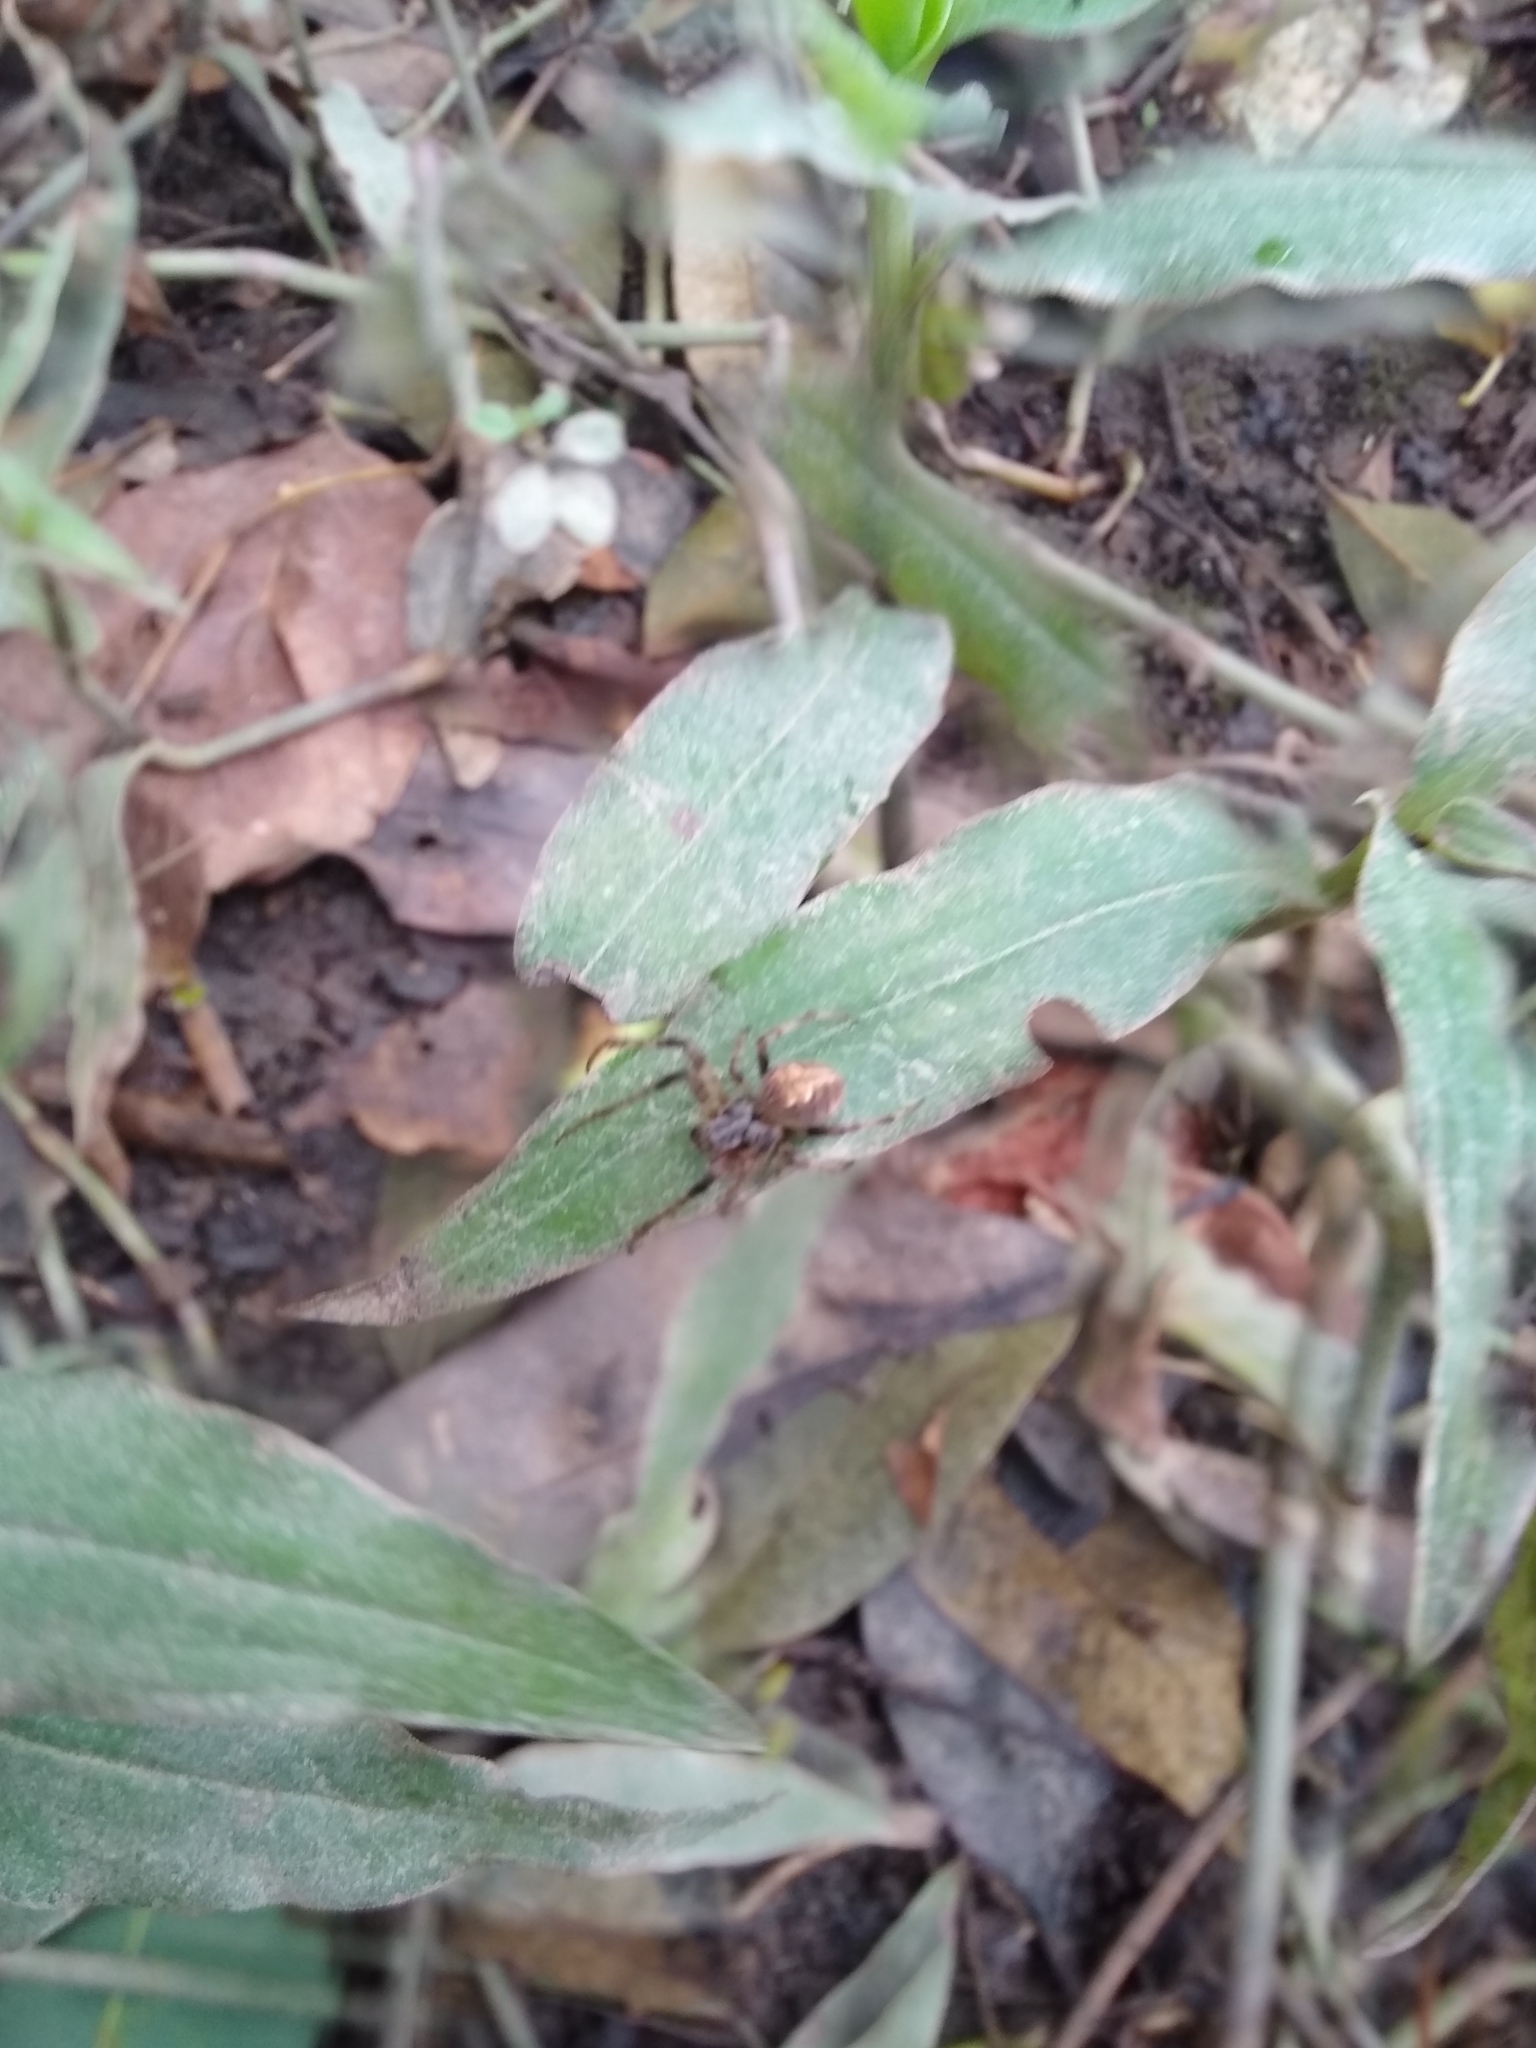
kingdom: Animalia
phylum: Arthropoda
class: Arachnida
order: Araneae
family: Araneidae
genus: Araneus
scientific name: Araneus omnicolor
